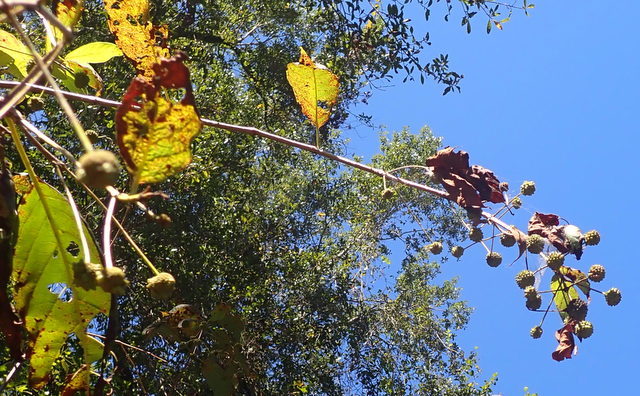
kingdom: Plantae
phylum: Tracheophyta
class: Magnoliopsida
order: Gentianales
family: Rubiaceae
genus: Cephalanthus
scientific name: Cephalanthus occidentalis
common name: Button-willow
